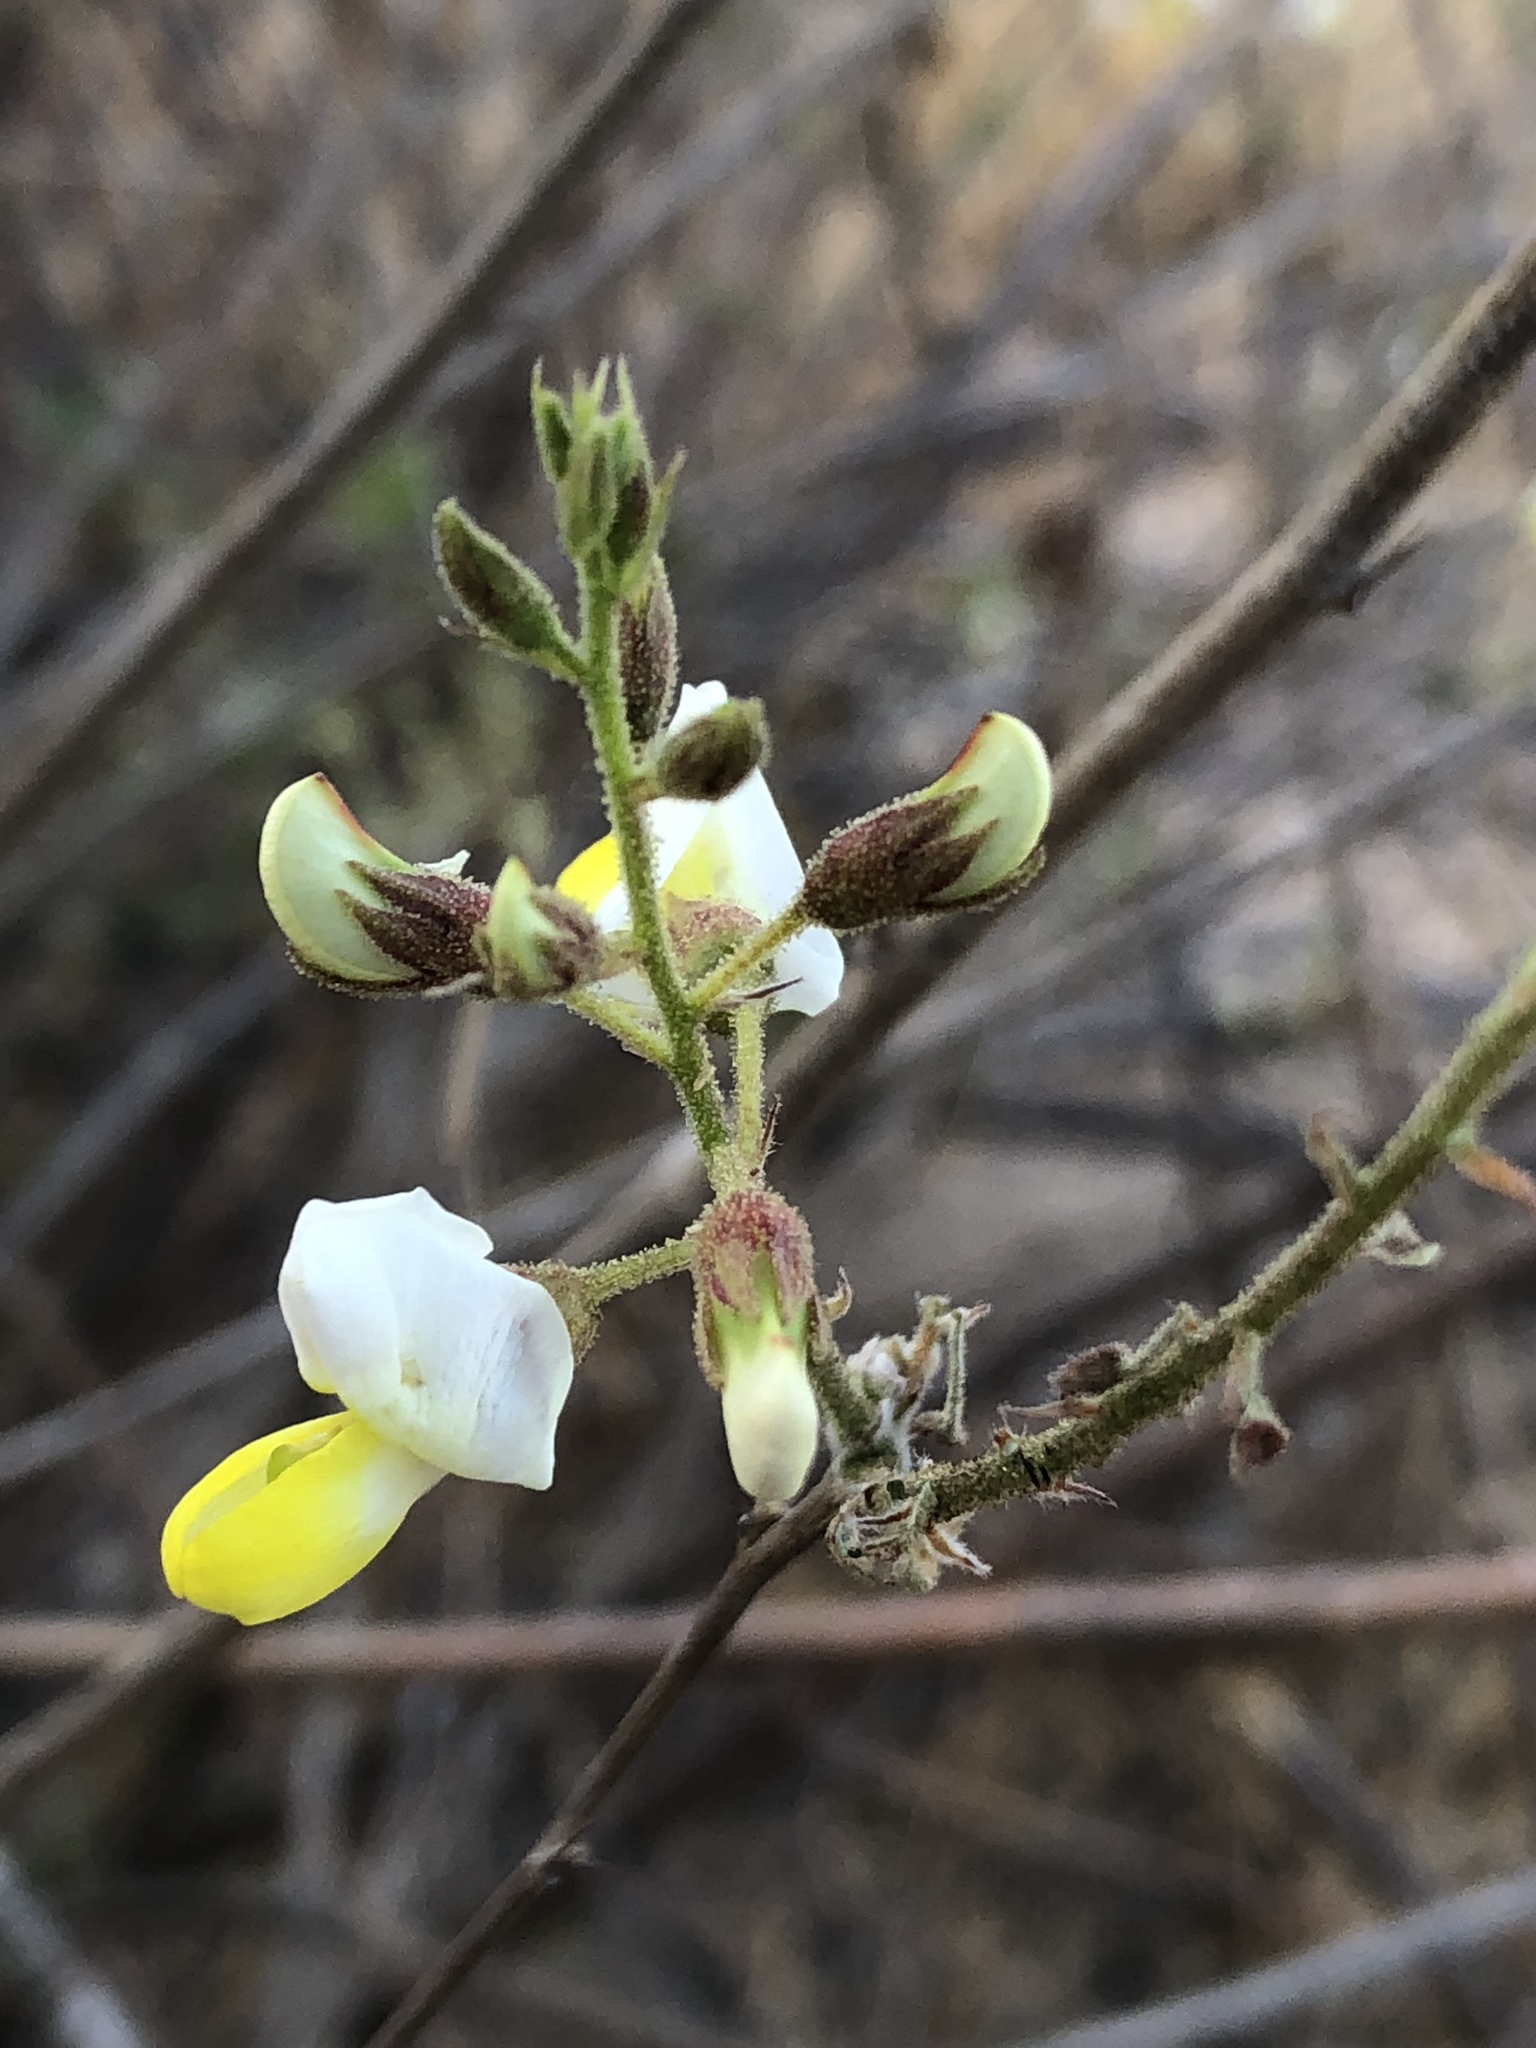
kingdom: Plantae
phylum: Tracheophyta
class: Magnoliopsida
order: Fabales
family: Fabaceae
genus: Coursetia
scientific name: Coursetia glandulosa
